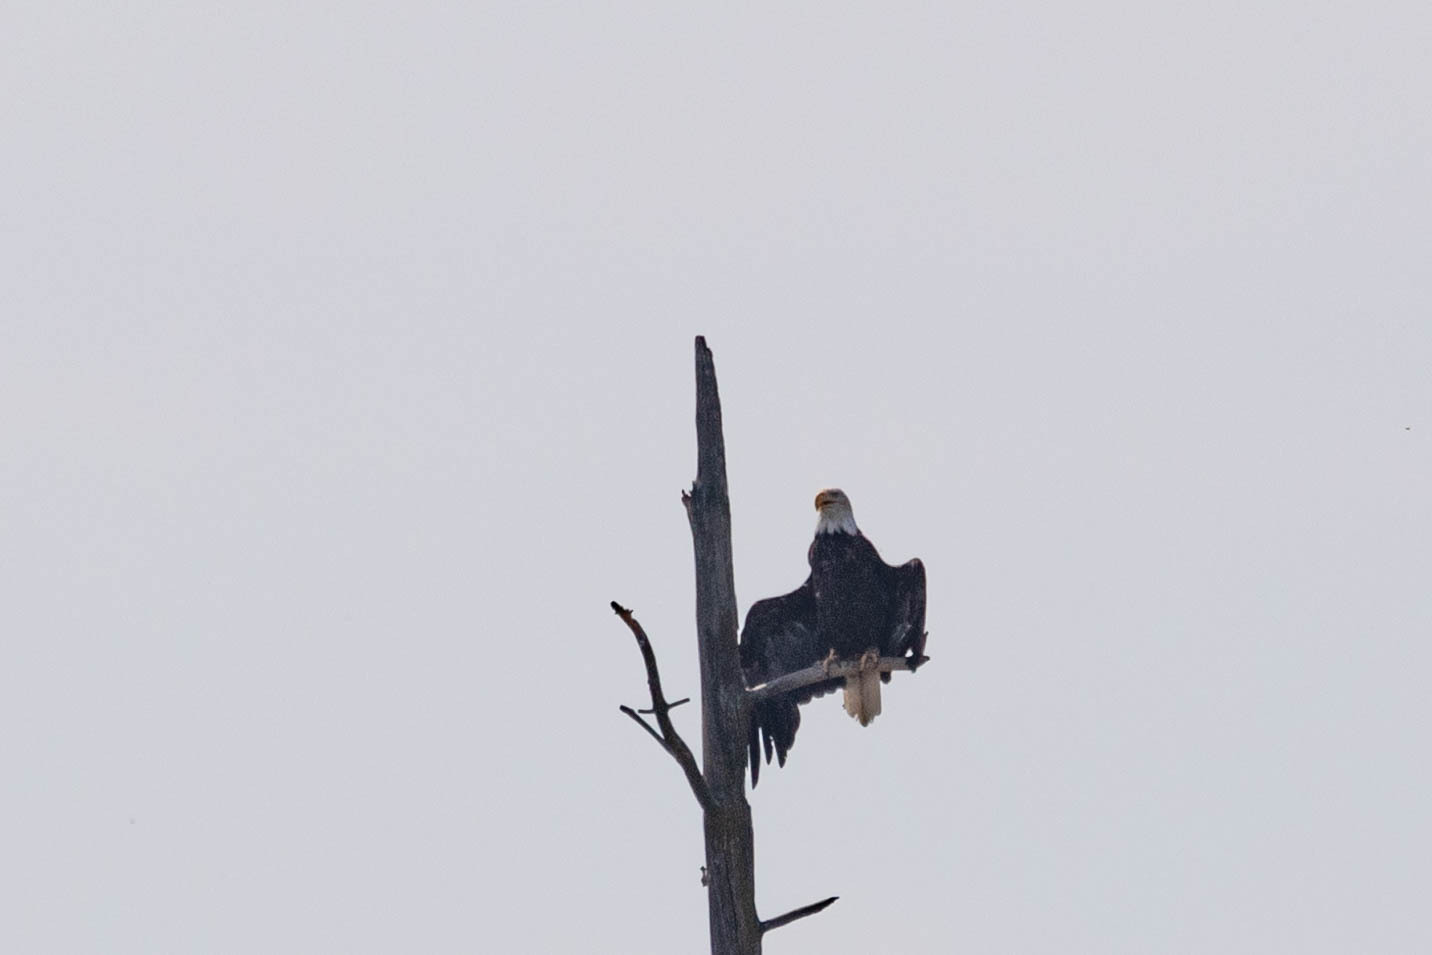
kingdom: Animalia
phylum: Chordata
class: Aves
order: Accipitriformes
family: Accipitridae
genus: Haliaeetus
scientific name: Haliaeetus leucocephalus
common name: Bald eagle
